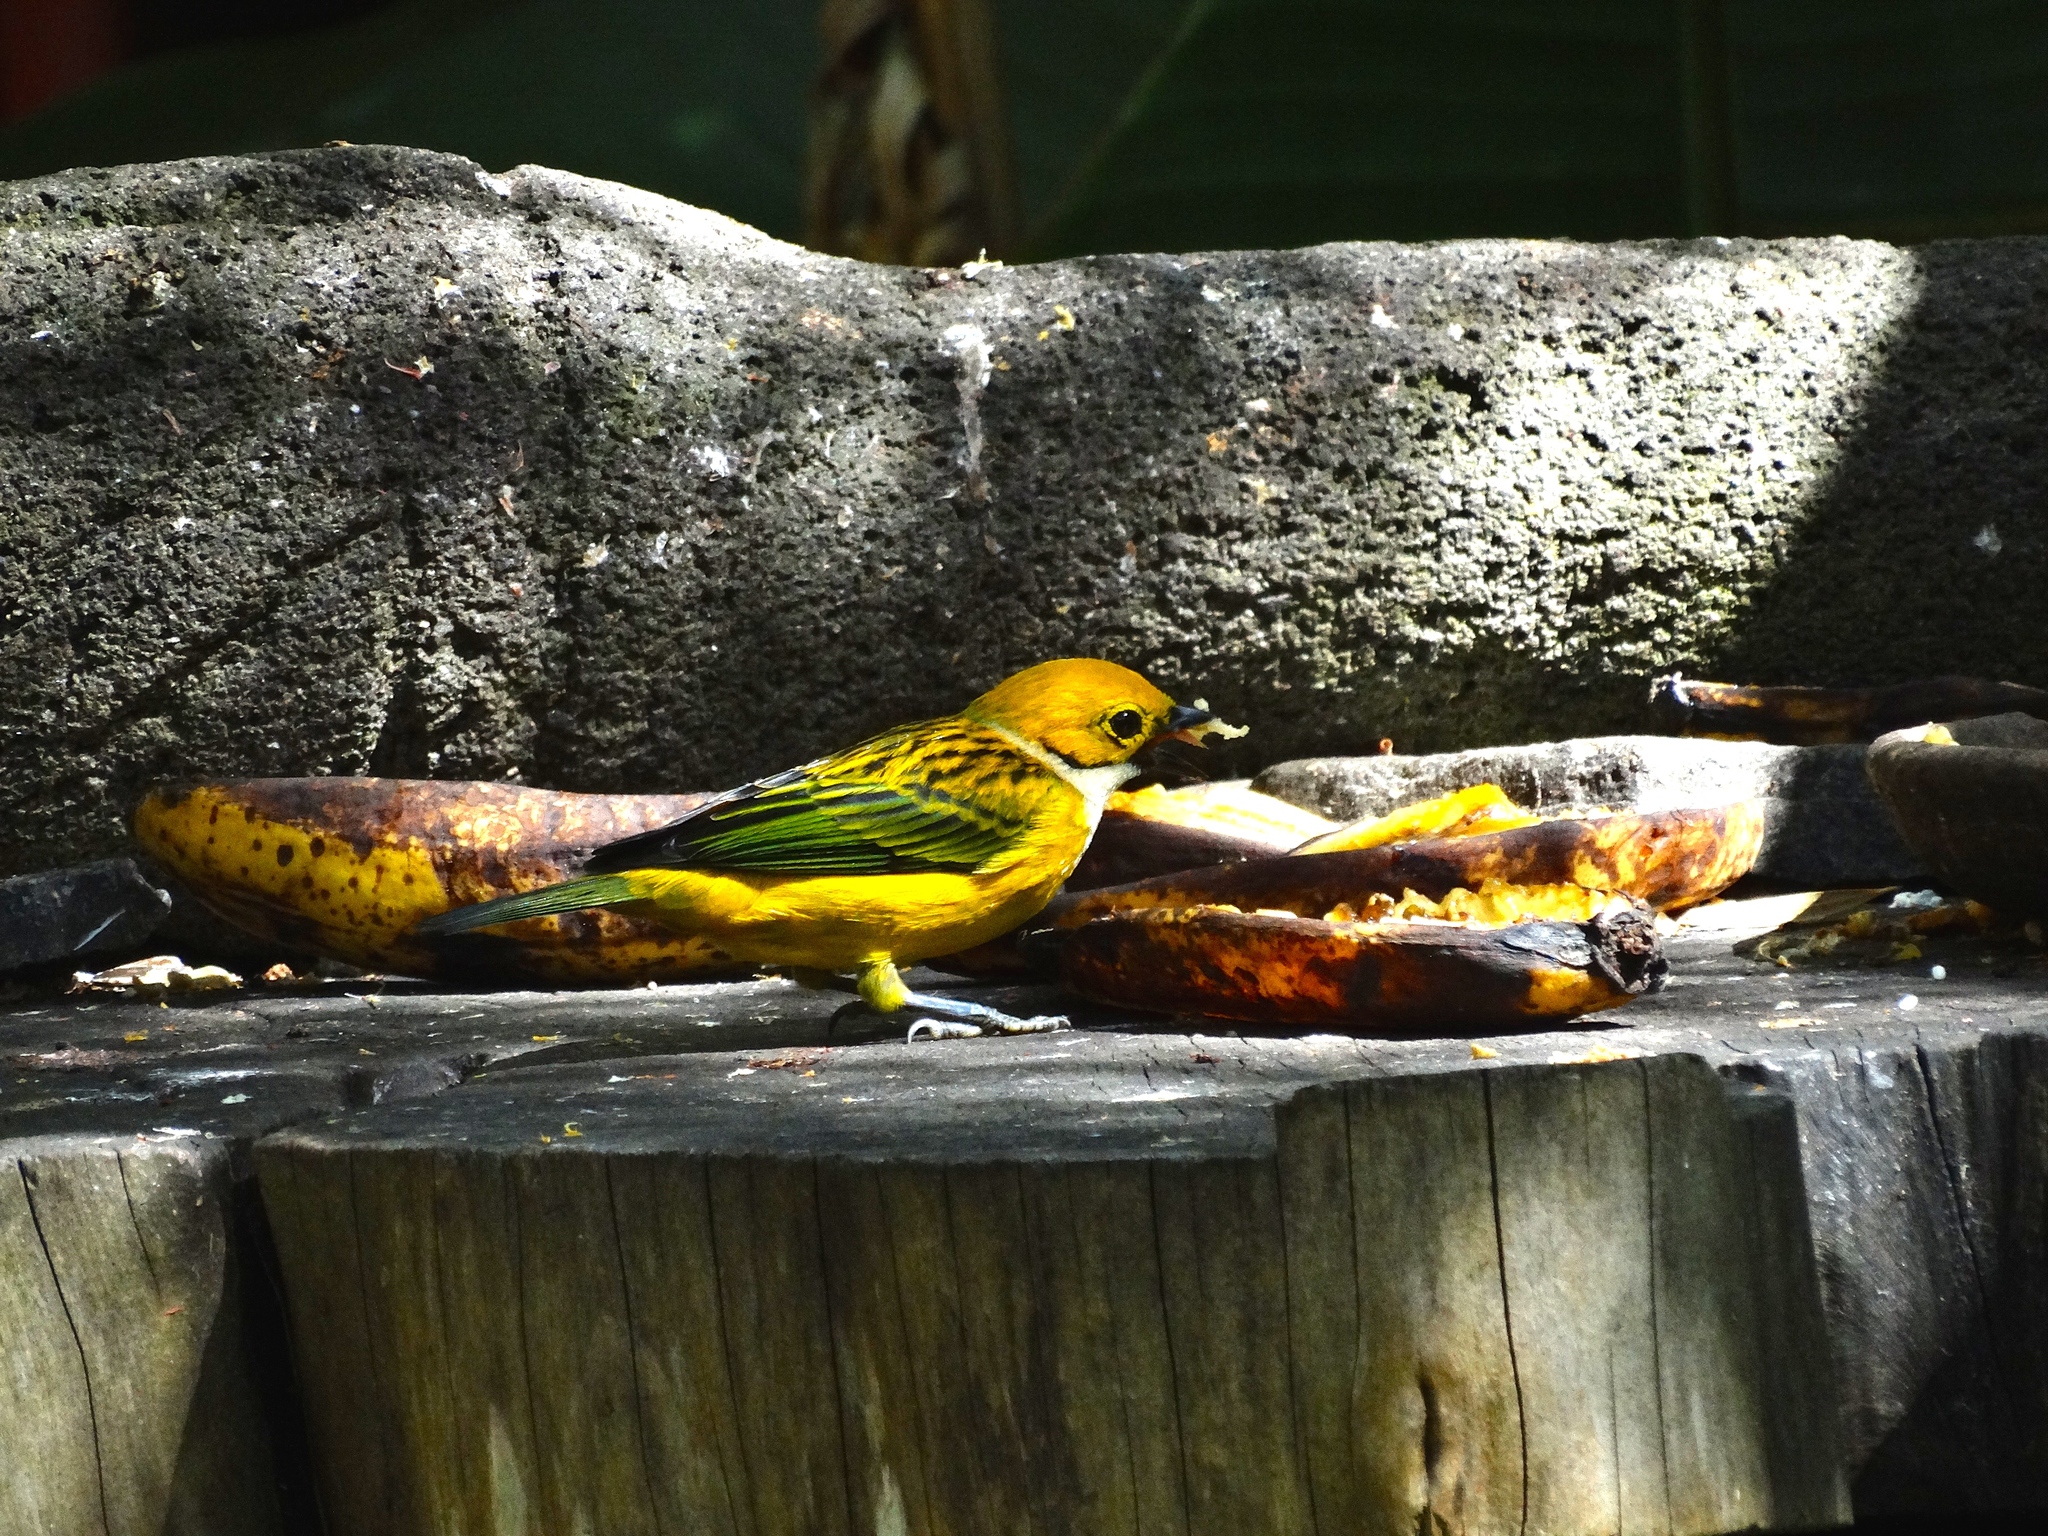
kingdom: Animalia
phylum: Chordata
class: Aves
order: Passeriformes
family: Thraupidae
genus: Tangara
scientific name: Tangara icterocephala
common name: Silver-throated tanager
